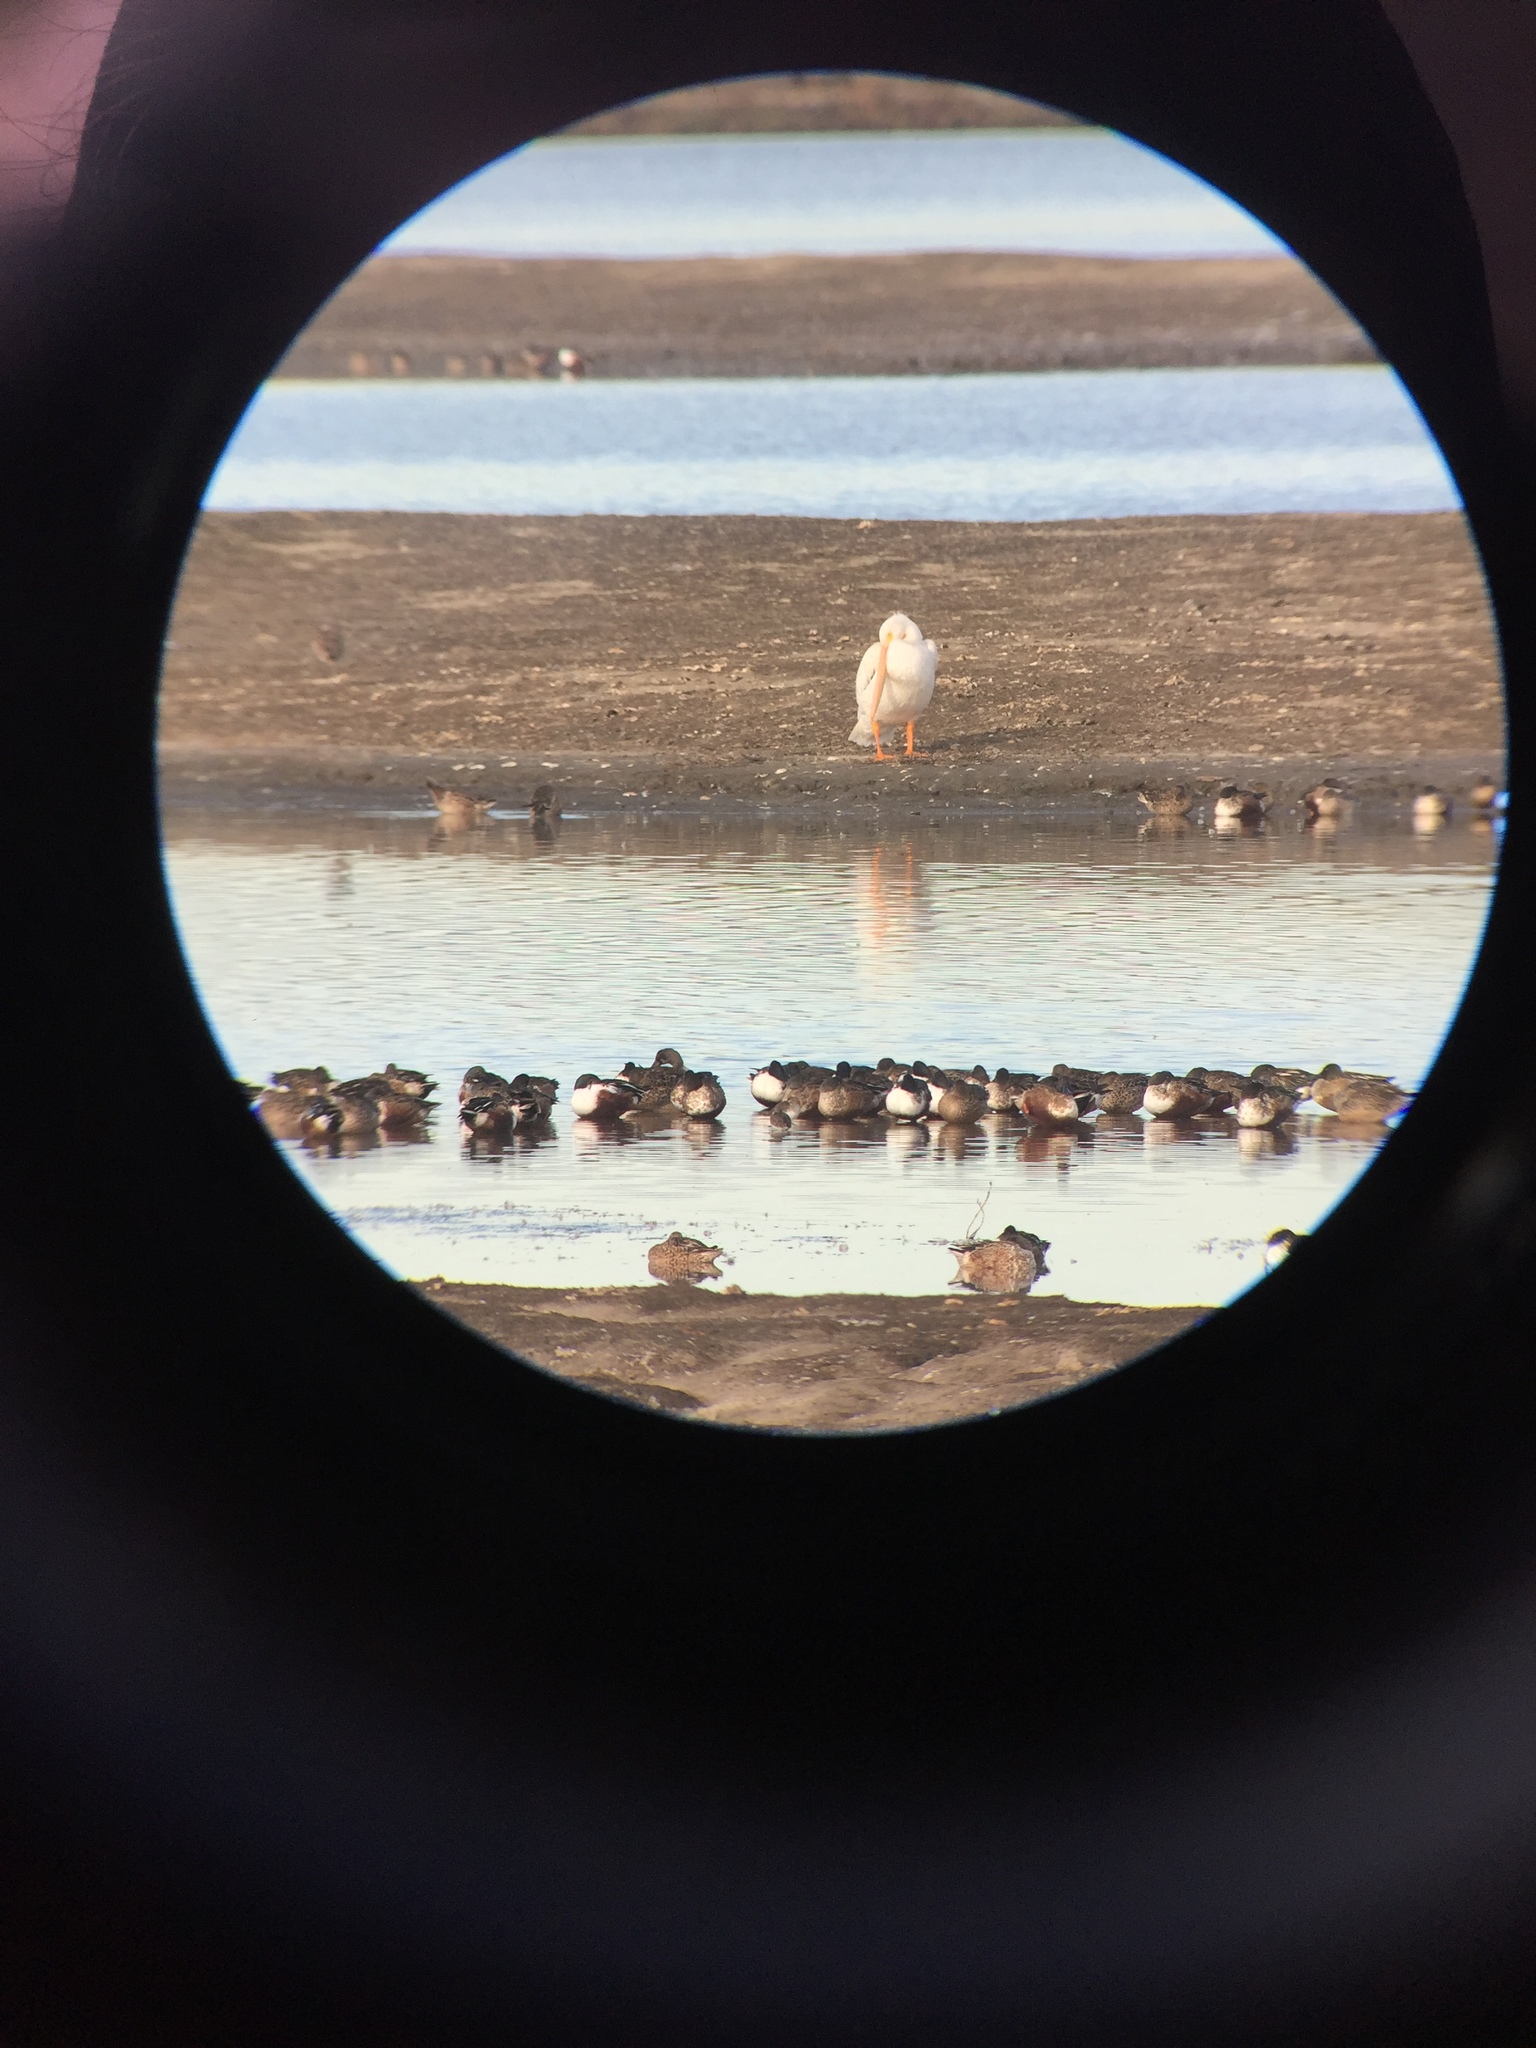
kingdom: Animalia
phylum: Chordata
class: Aves
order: Pelecaniformes
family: Pelecanidae
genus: Pelecanus
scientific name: Pelecanus erythrorhynchos
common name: American white pelican
